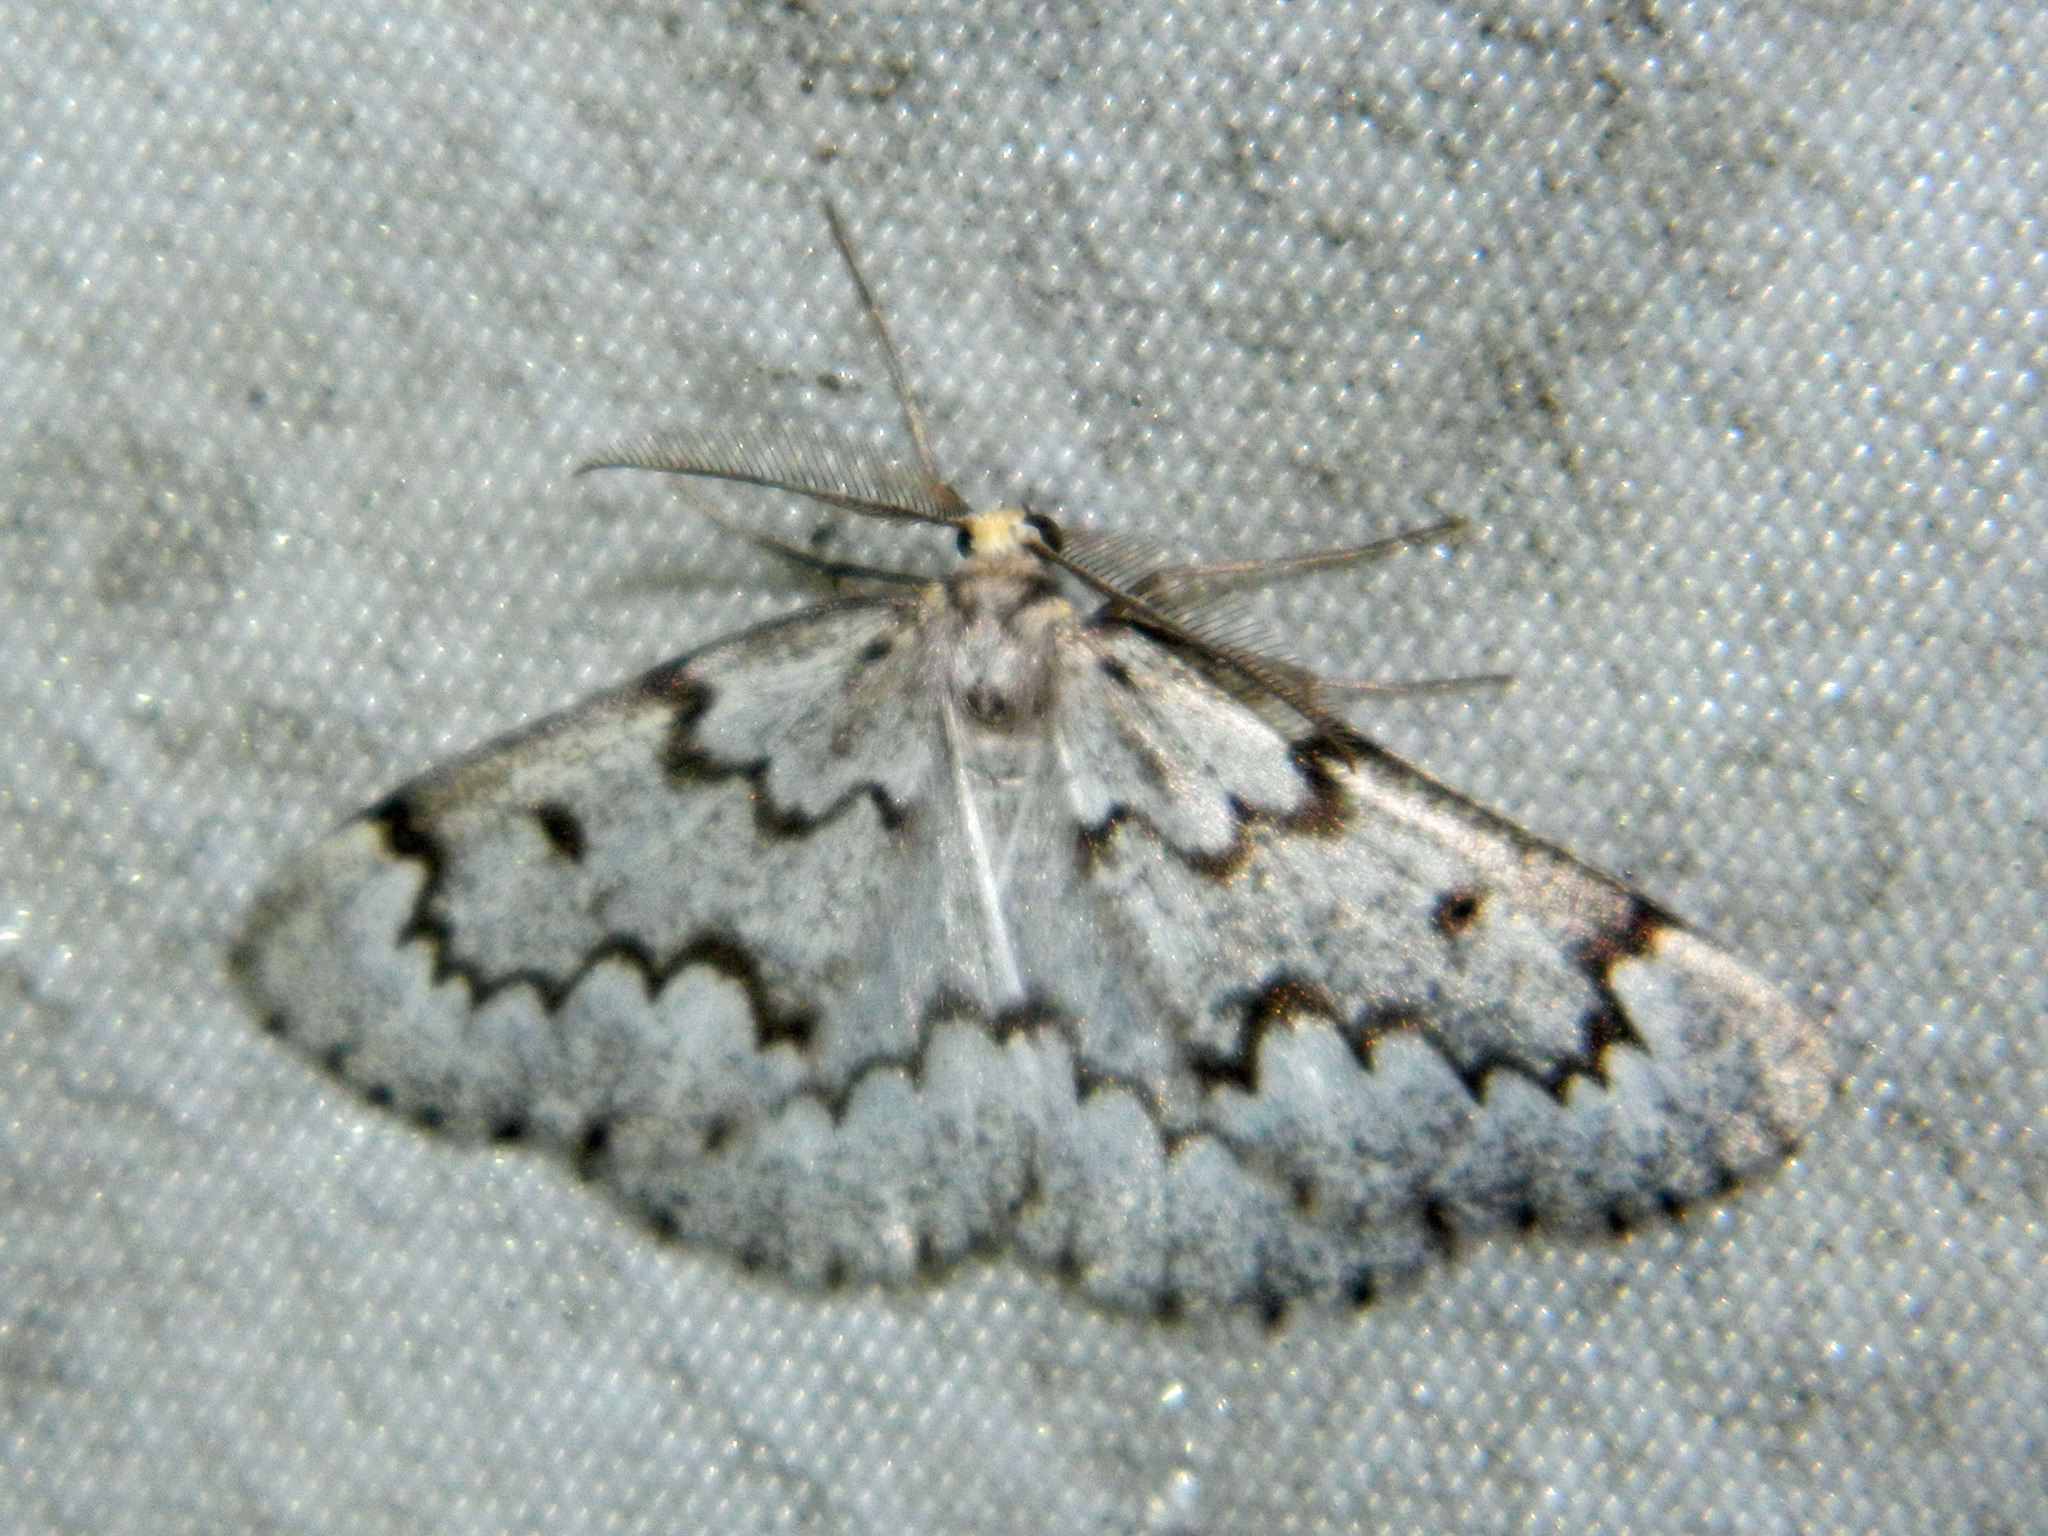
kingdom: Animalia
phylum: Arthropoda
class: Insecta
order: Lepidoptera
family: Geometridae
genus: Nepytia
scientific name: Nepytia canosaria
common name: False hemlock looper
